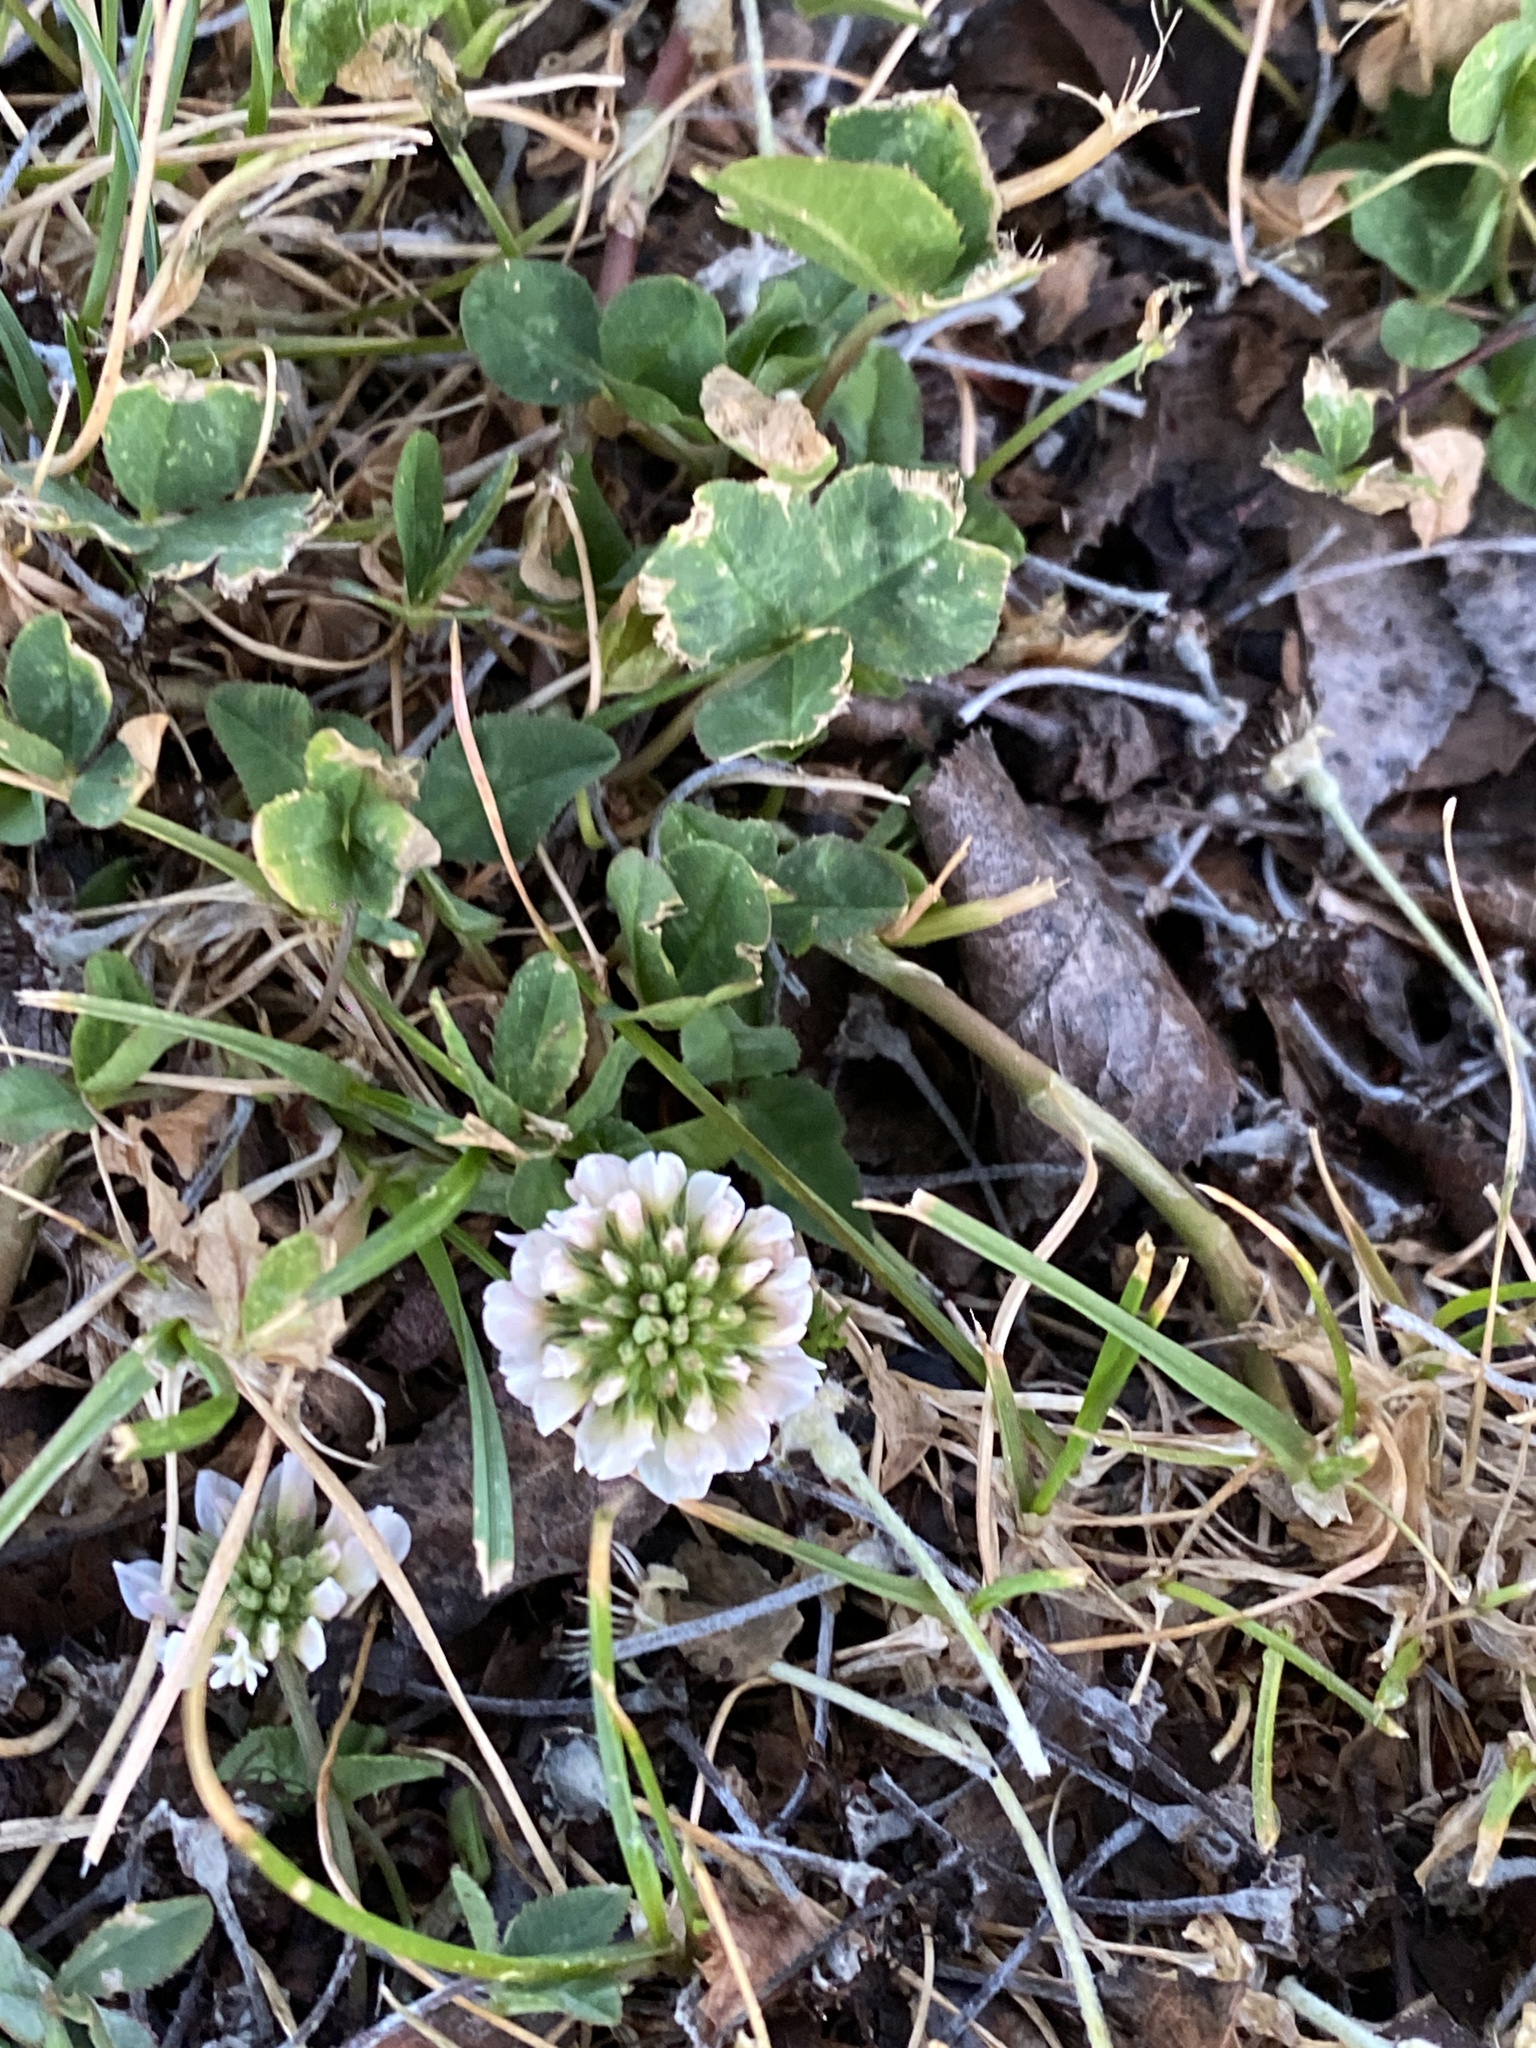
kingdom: Plantae
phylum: Tracheophyta
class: Magnoliopsida
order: Fabales
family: Fabaceae
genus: Trifolium
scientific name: Trifolium repens
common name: White clover
